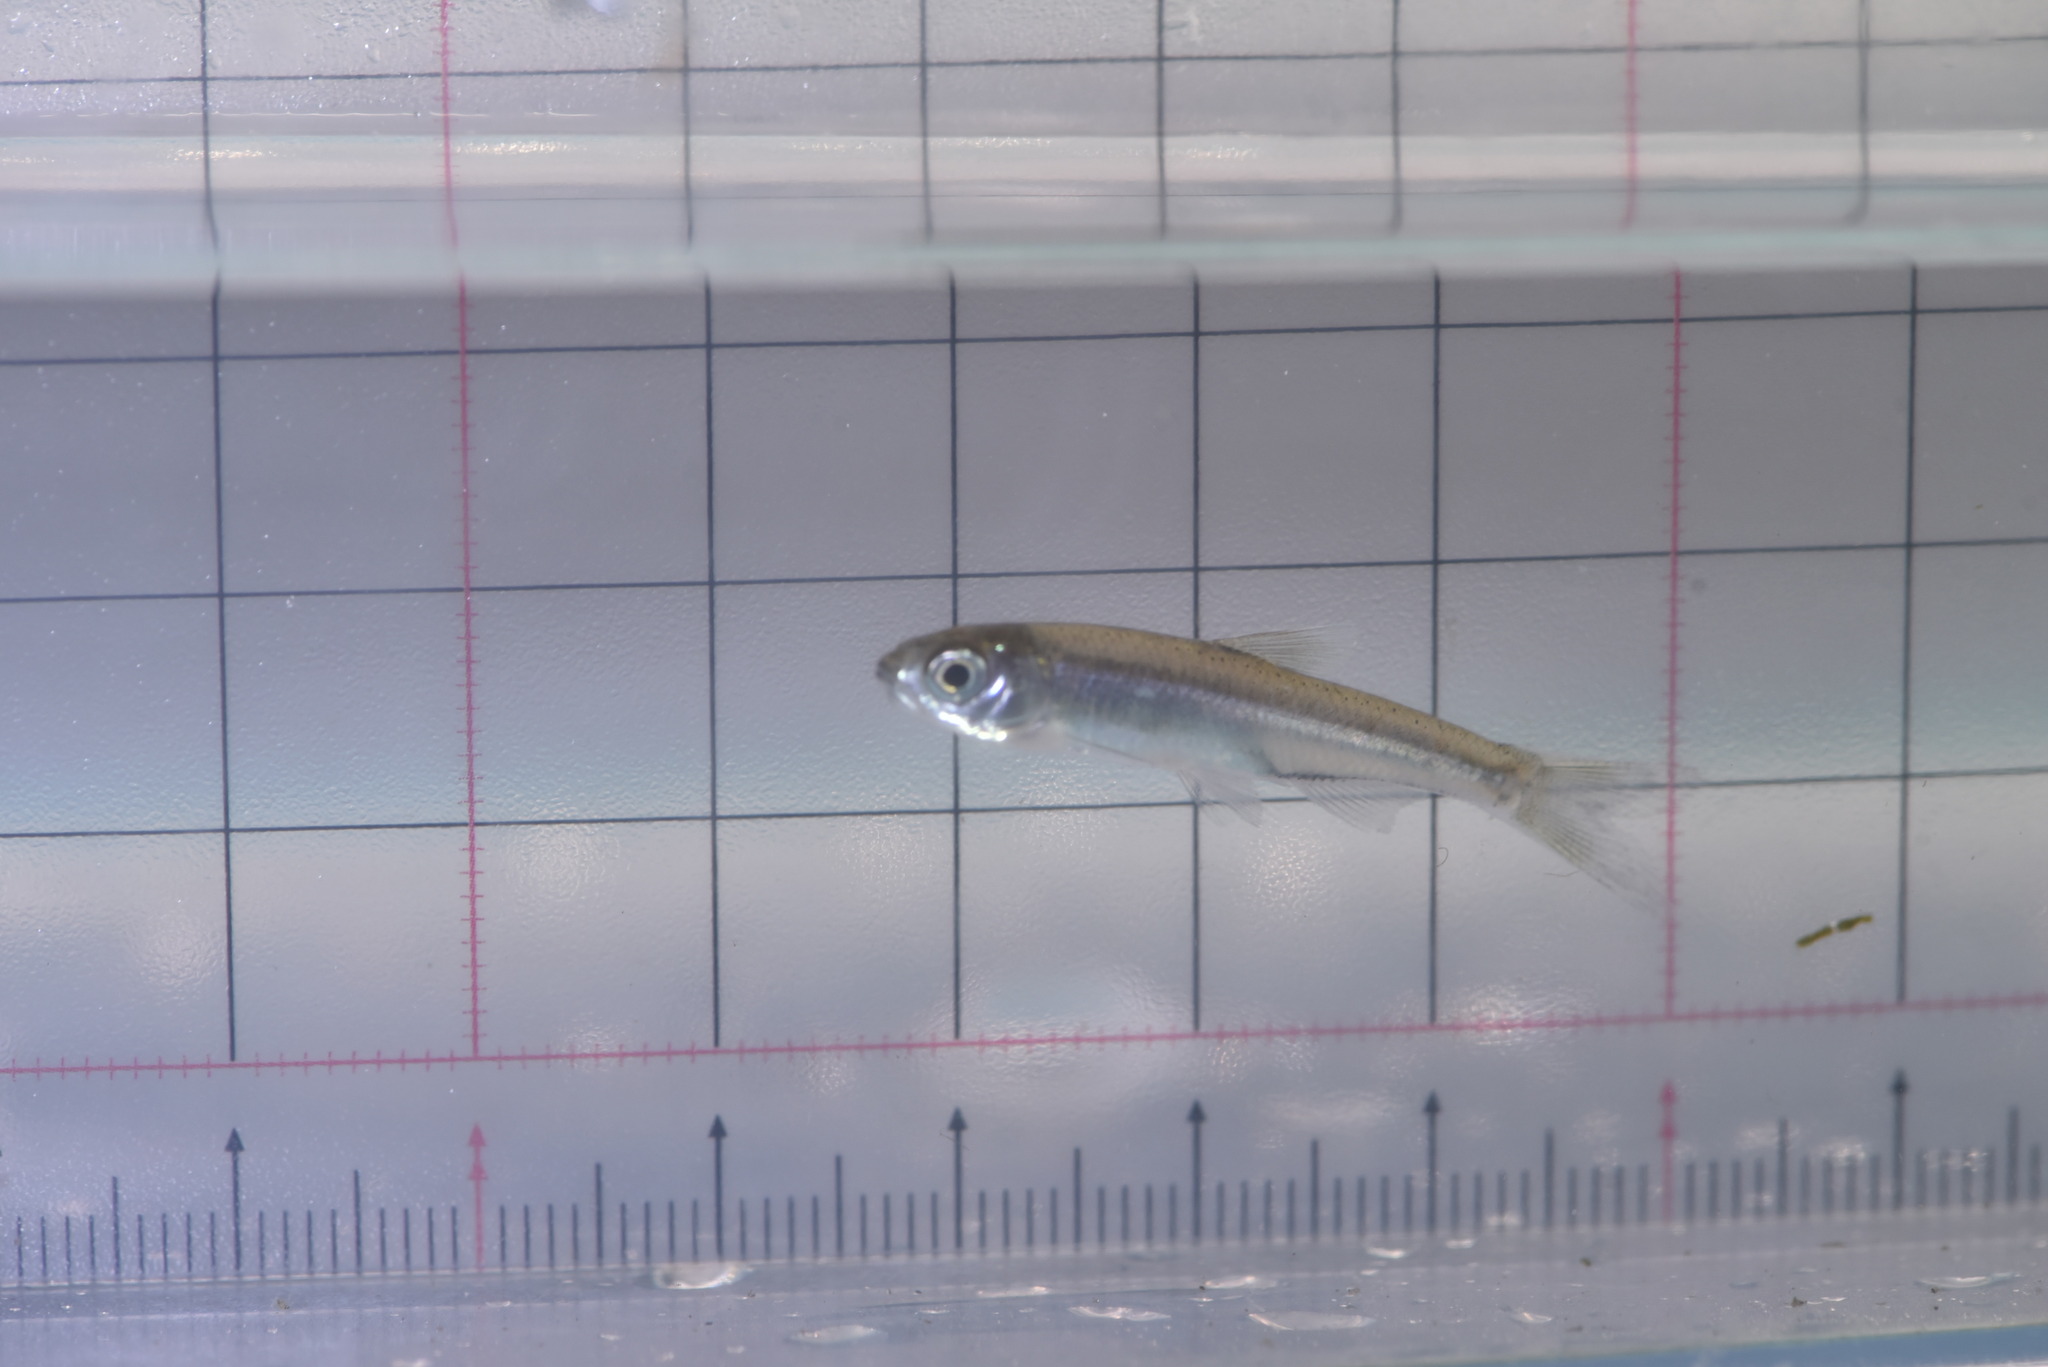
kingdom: Animalia
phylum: Chordata
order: Cypriniformes
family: Cyprinidae
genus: Candidia
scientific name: Candidia barbata
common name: Lake candidus dace
